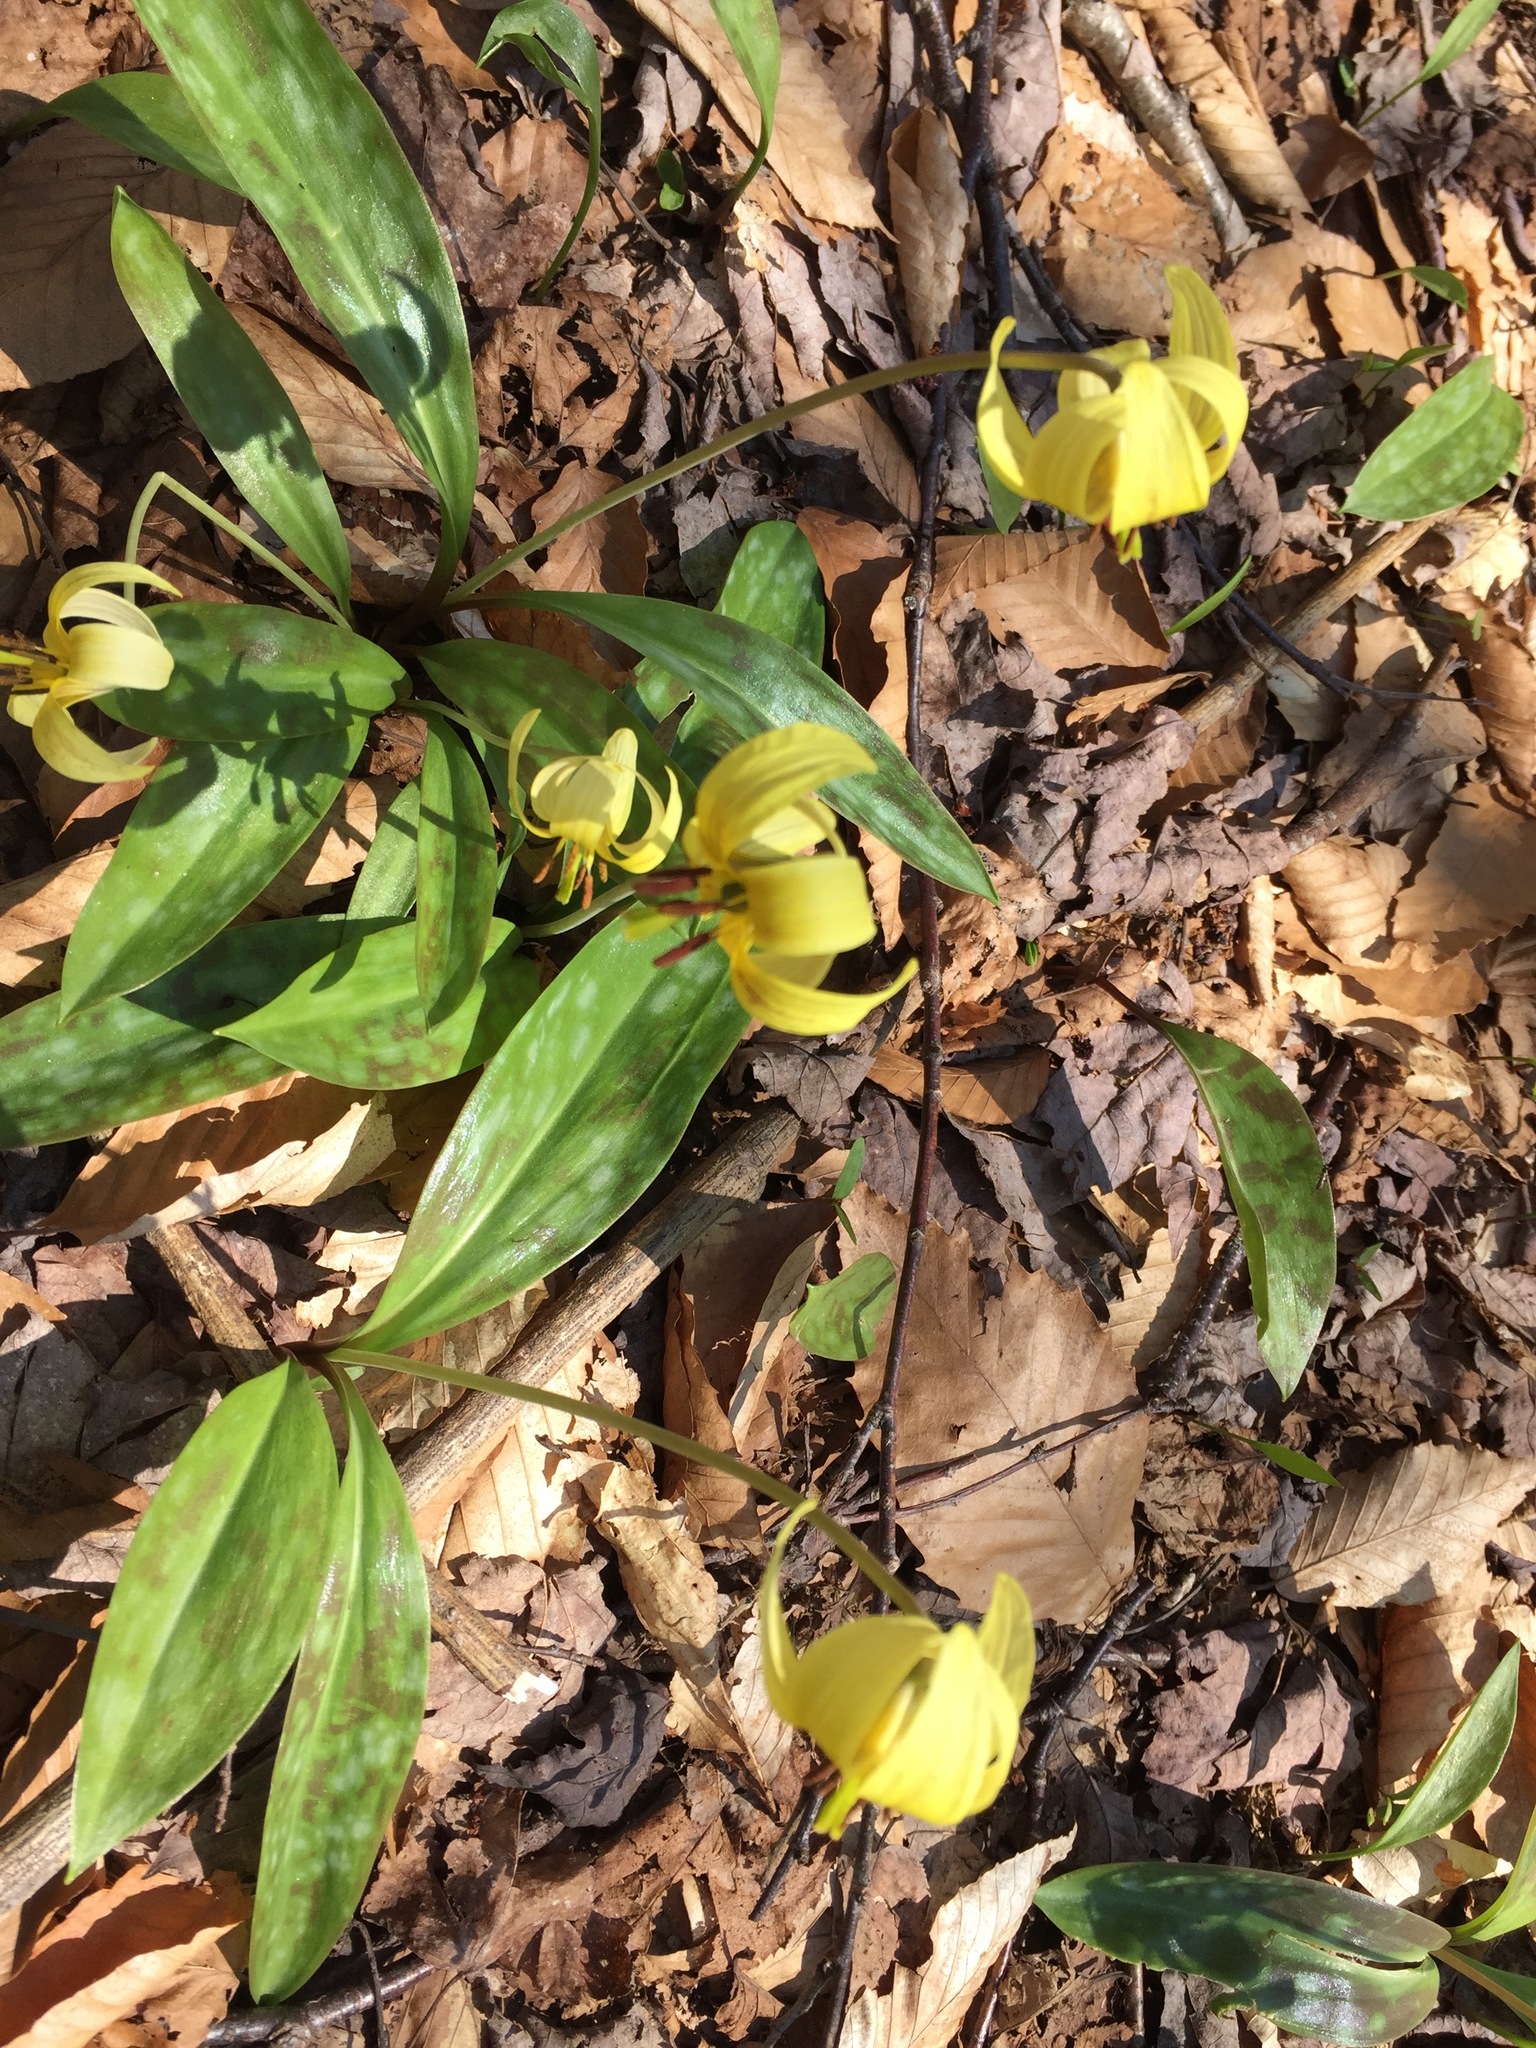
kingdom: Plantae
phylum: Tracheophyta
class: Liliopsida
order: Liliales
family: Liliaceae
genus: Erythronium
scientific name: Erythronium americanum
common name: Yellow adder's-tongue
